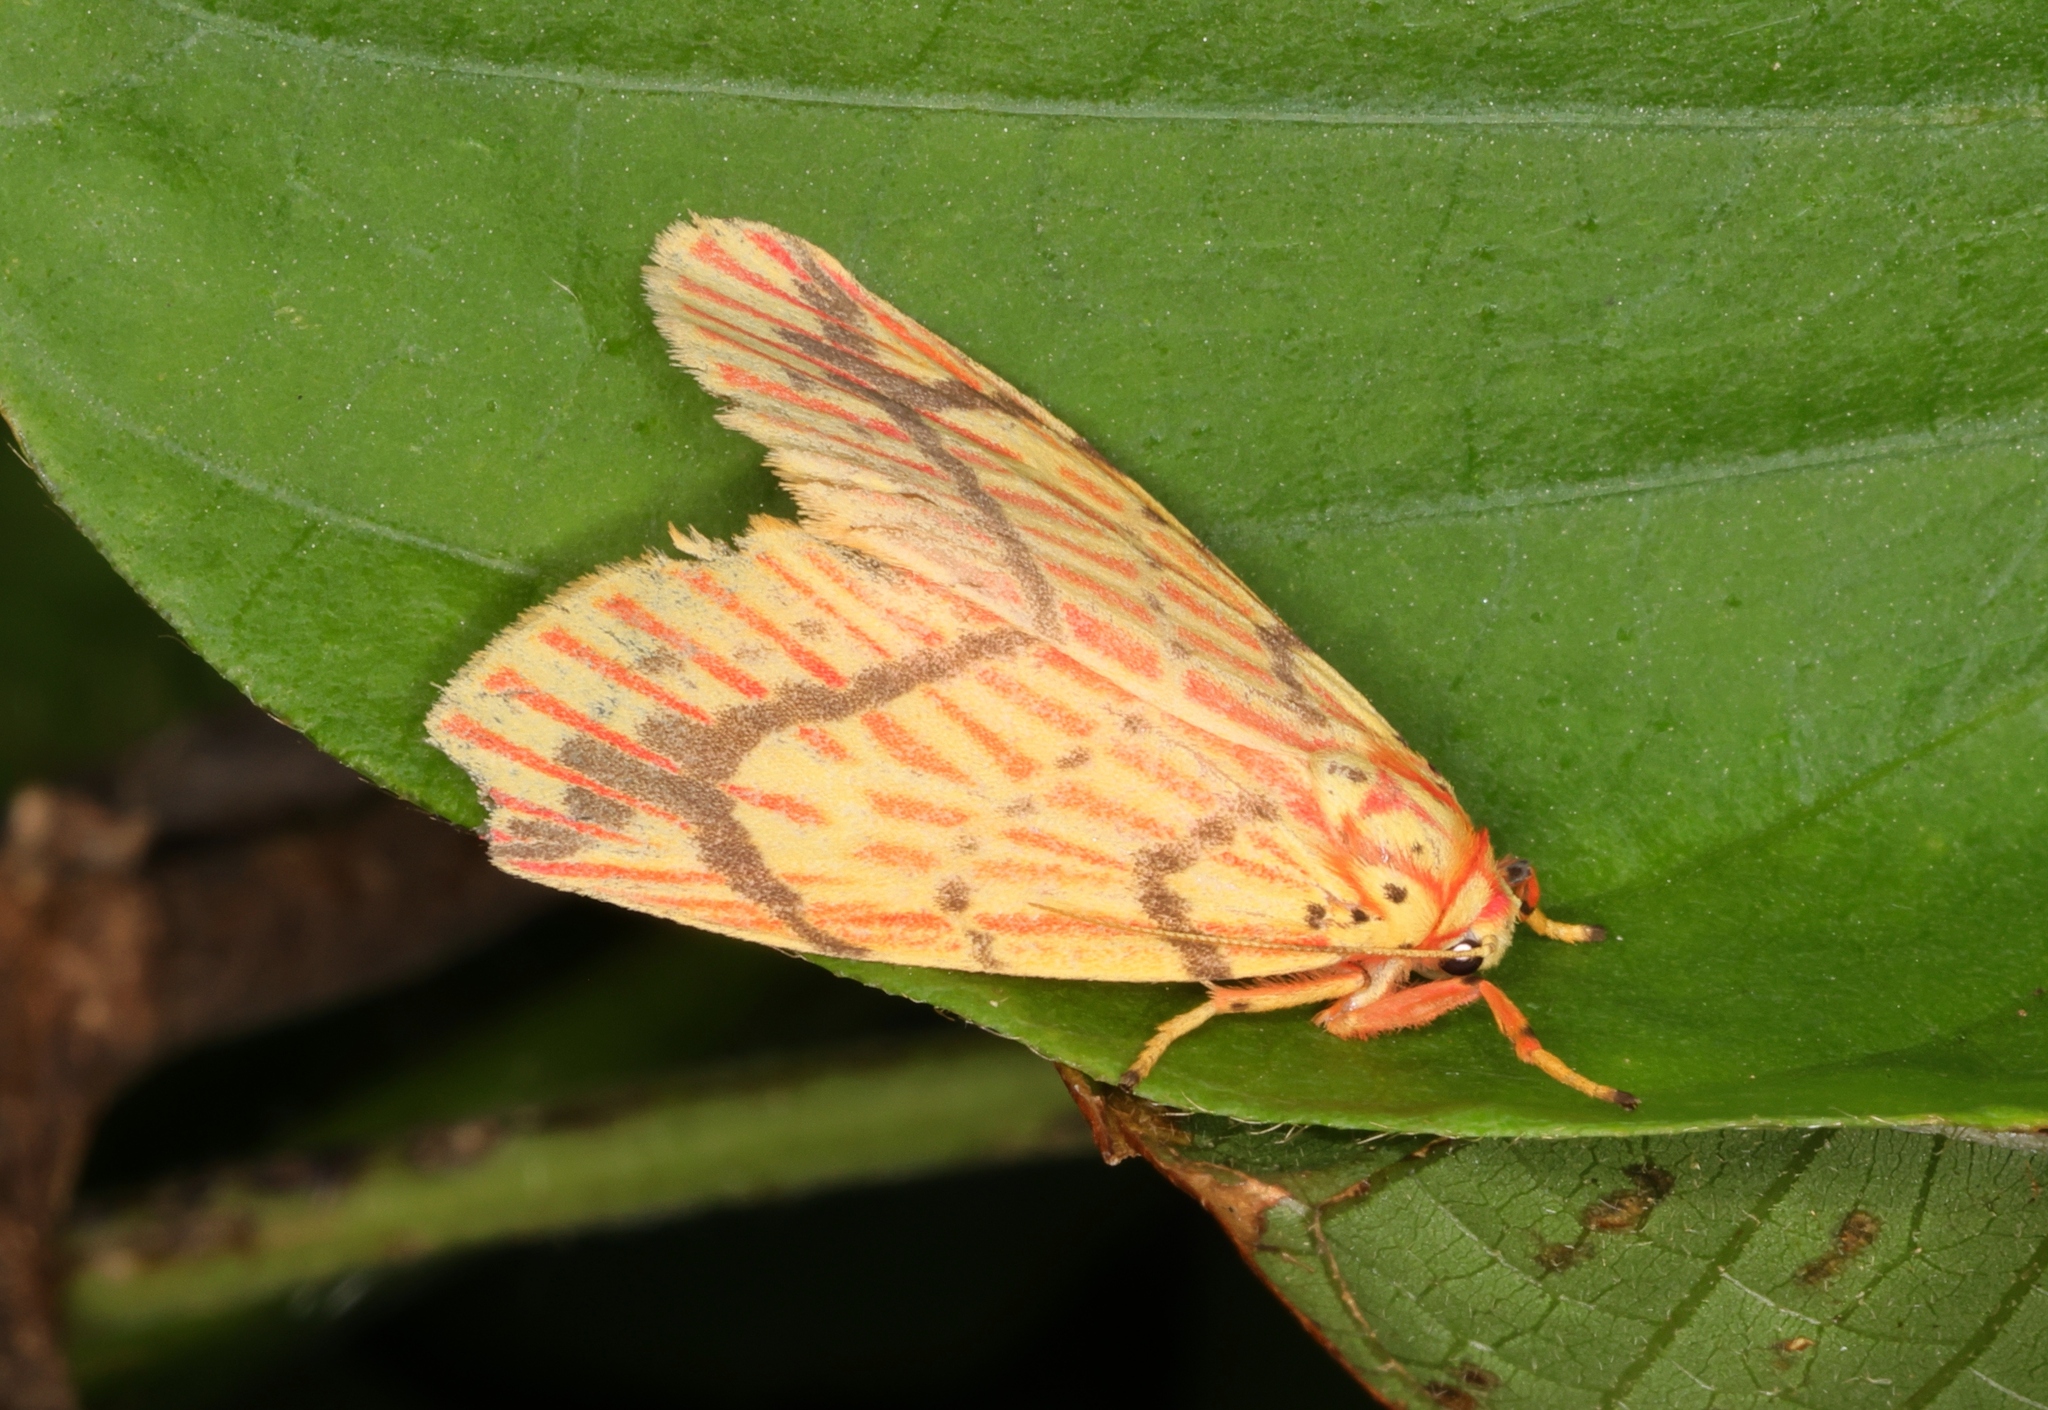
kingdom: Animalia
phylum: Arthropoda
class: Insecta
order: Lepidoptera
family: Erebidae
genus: Barsine
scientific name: Barsine striata
